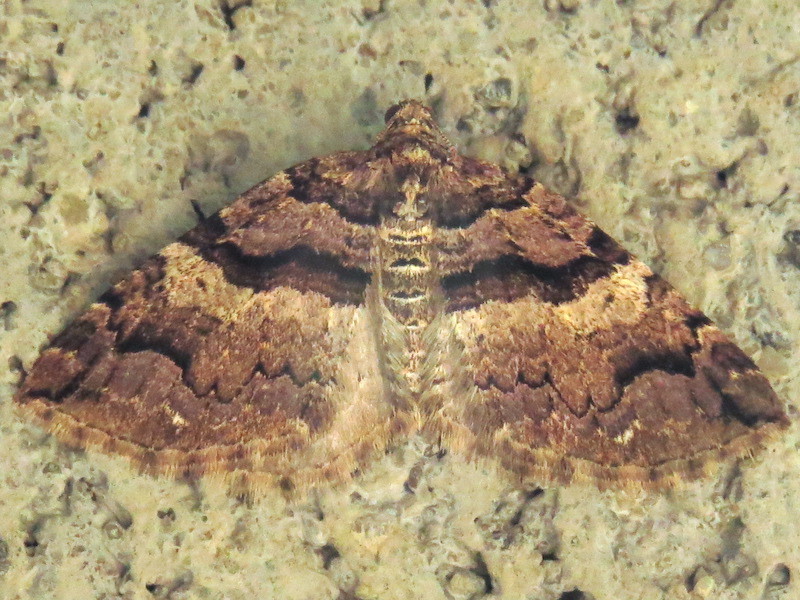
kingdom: Animalia
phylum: Arthropoda
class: Insecta
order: Lepidoptera
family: Geometridae
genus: Anticlea
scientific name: Anticlea vasiliata
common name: Variable carpet
